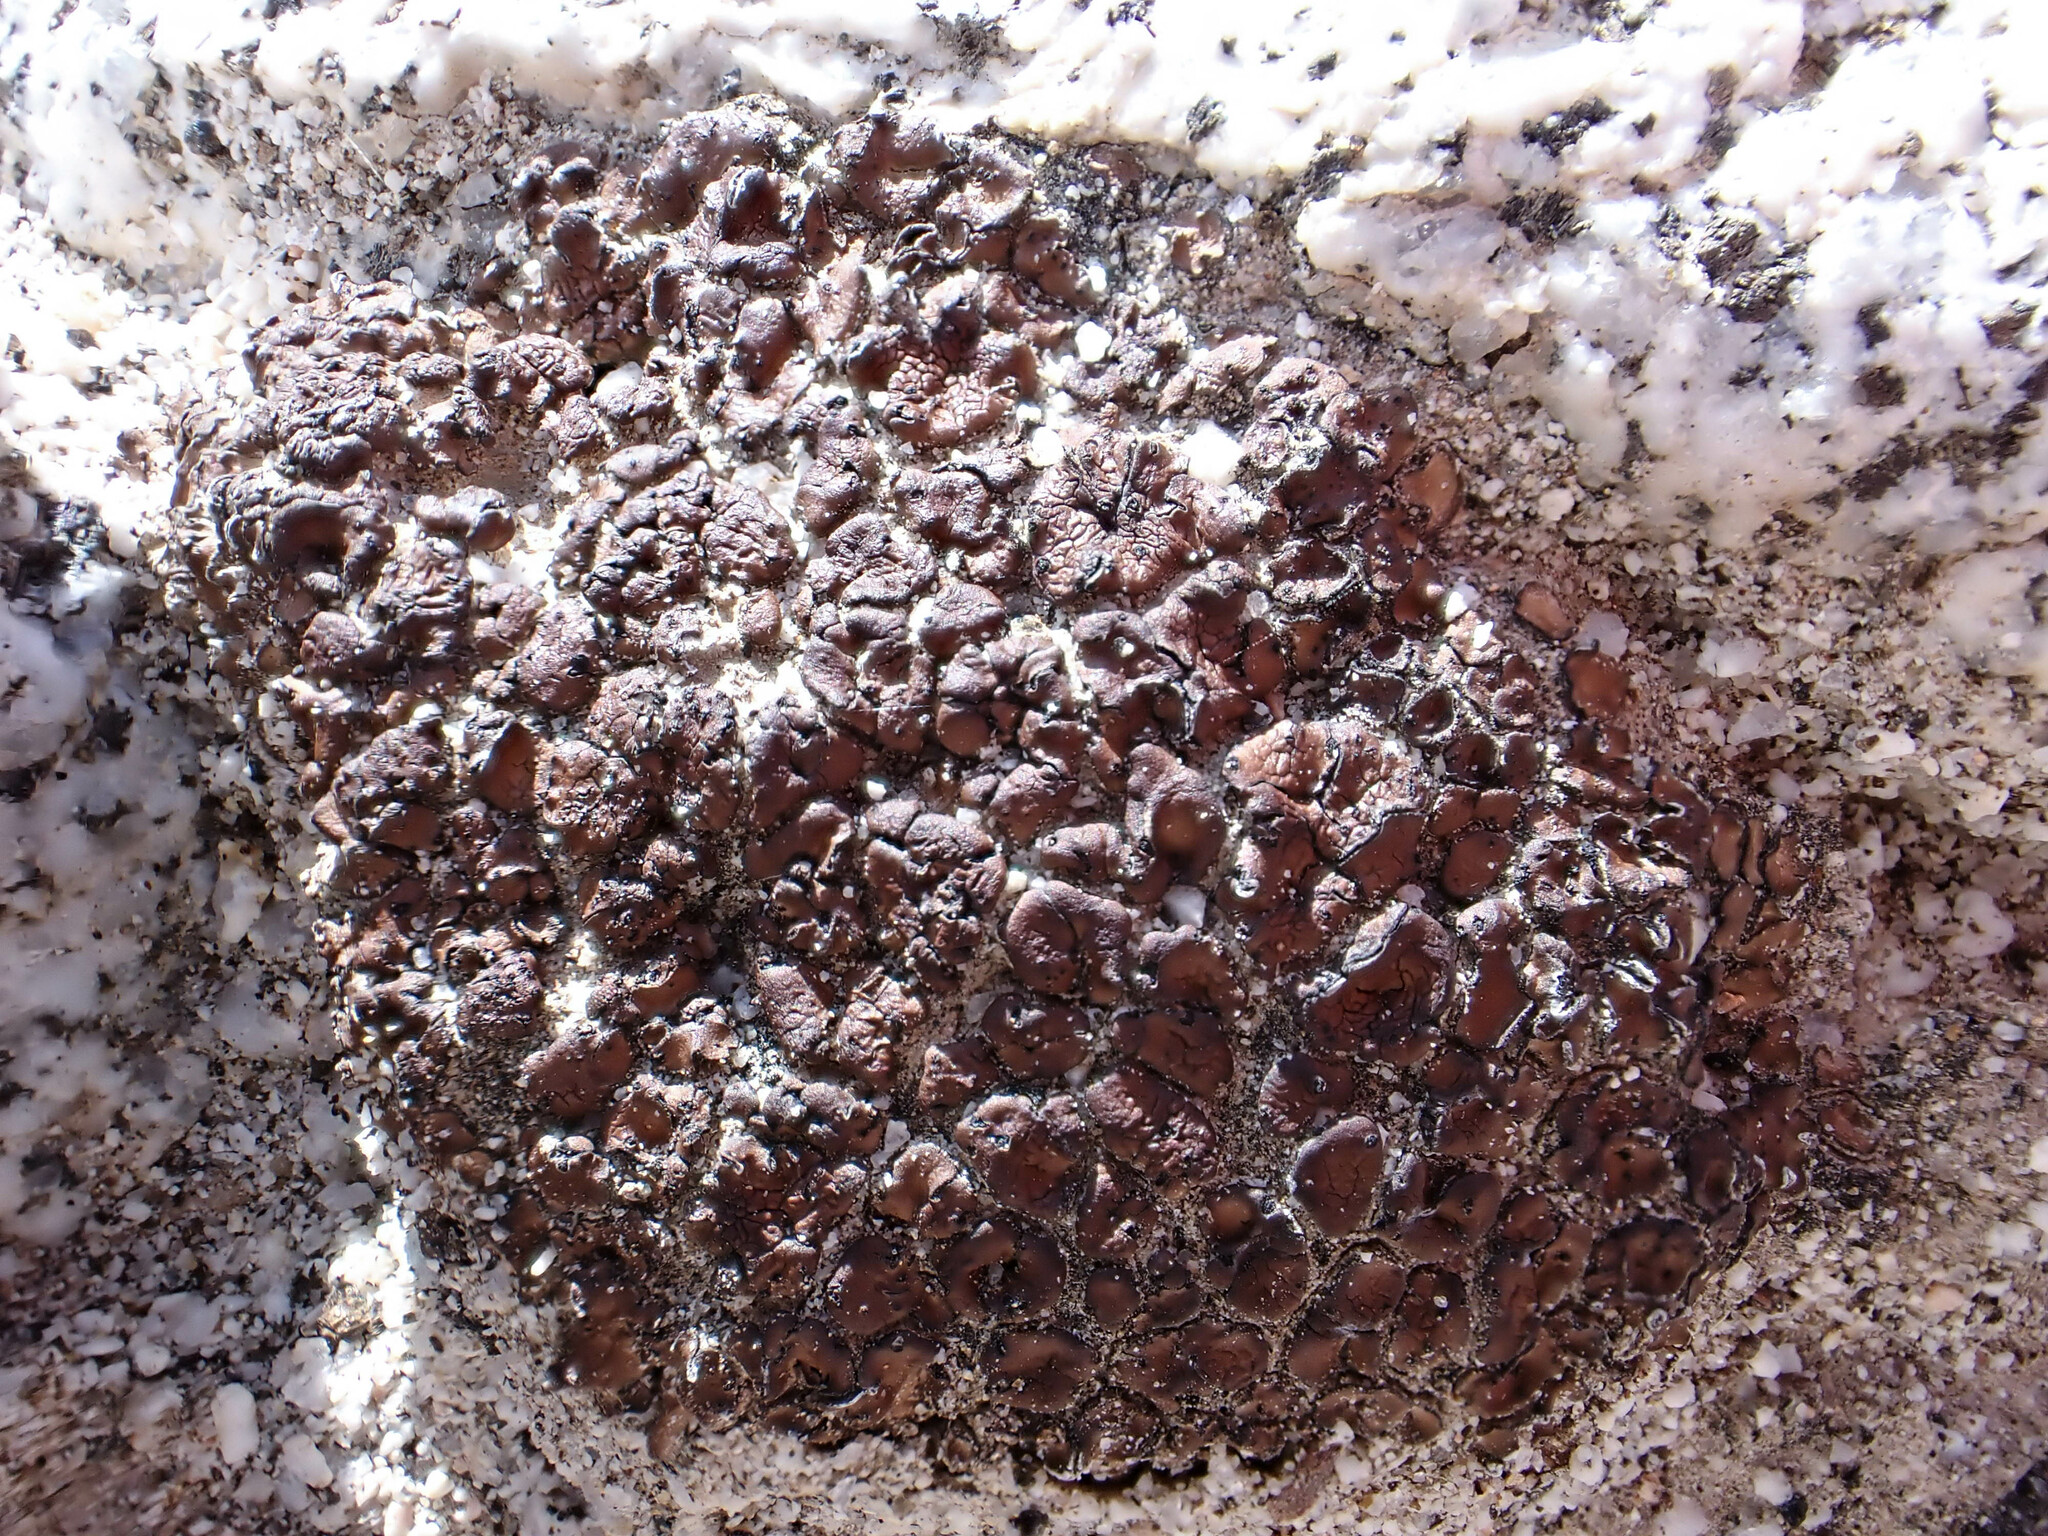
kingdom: Fungi
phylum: Ascomycota
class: Lecanoromycetes
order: Umbilicariales
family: Umbilicariaceae
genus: Umbilicaria
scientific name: Umbilicaria phaea
